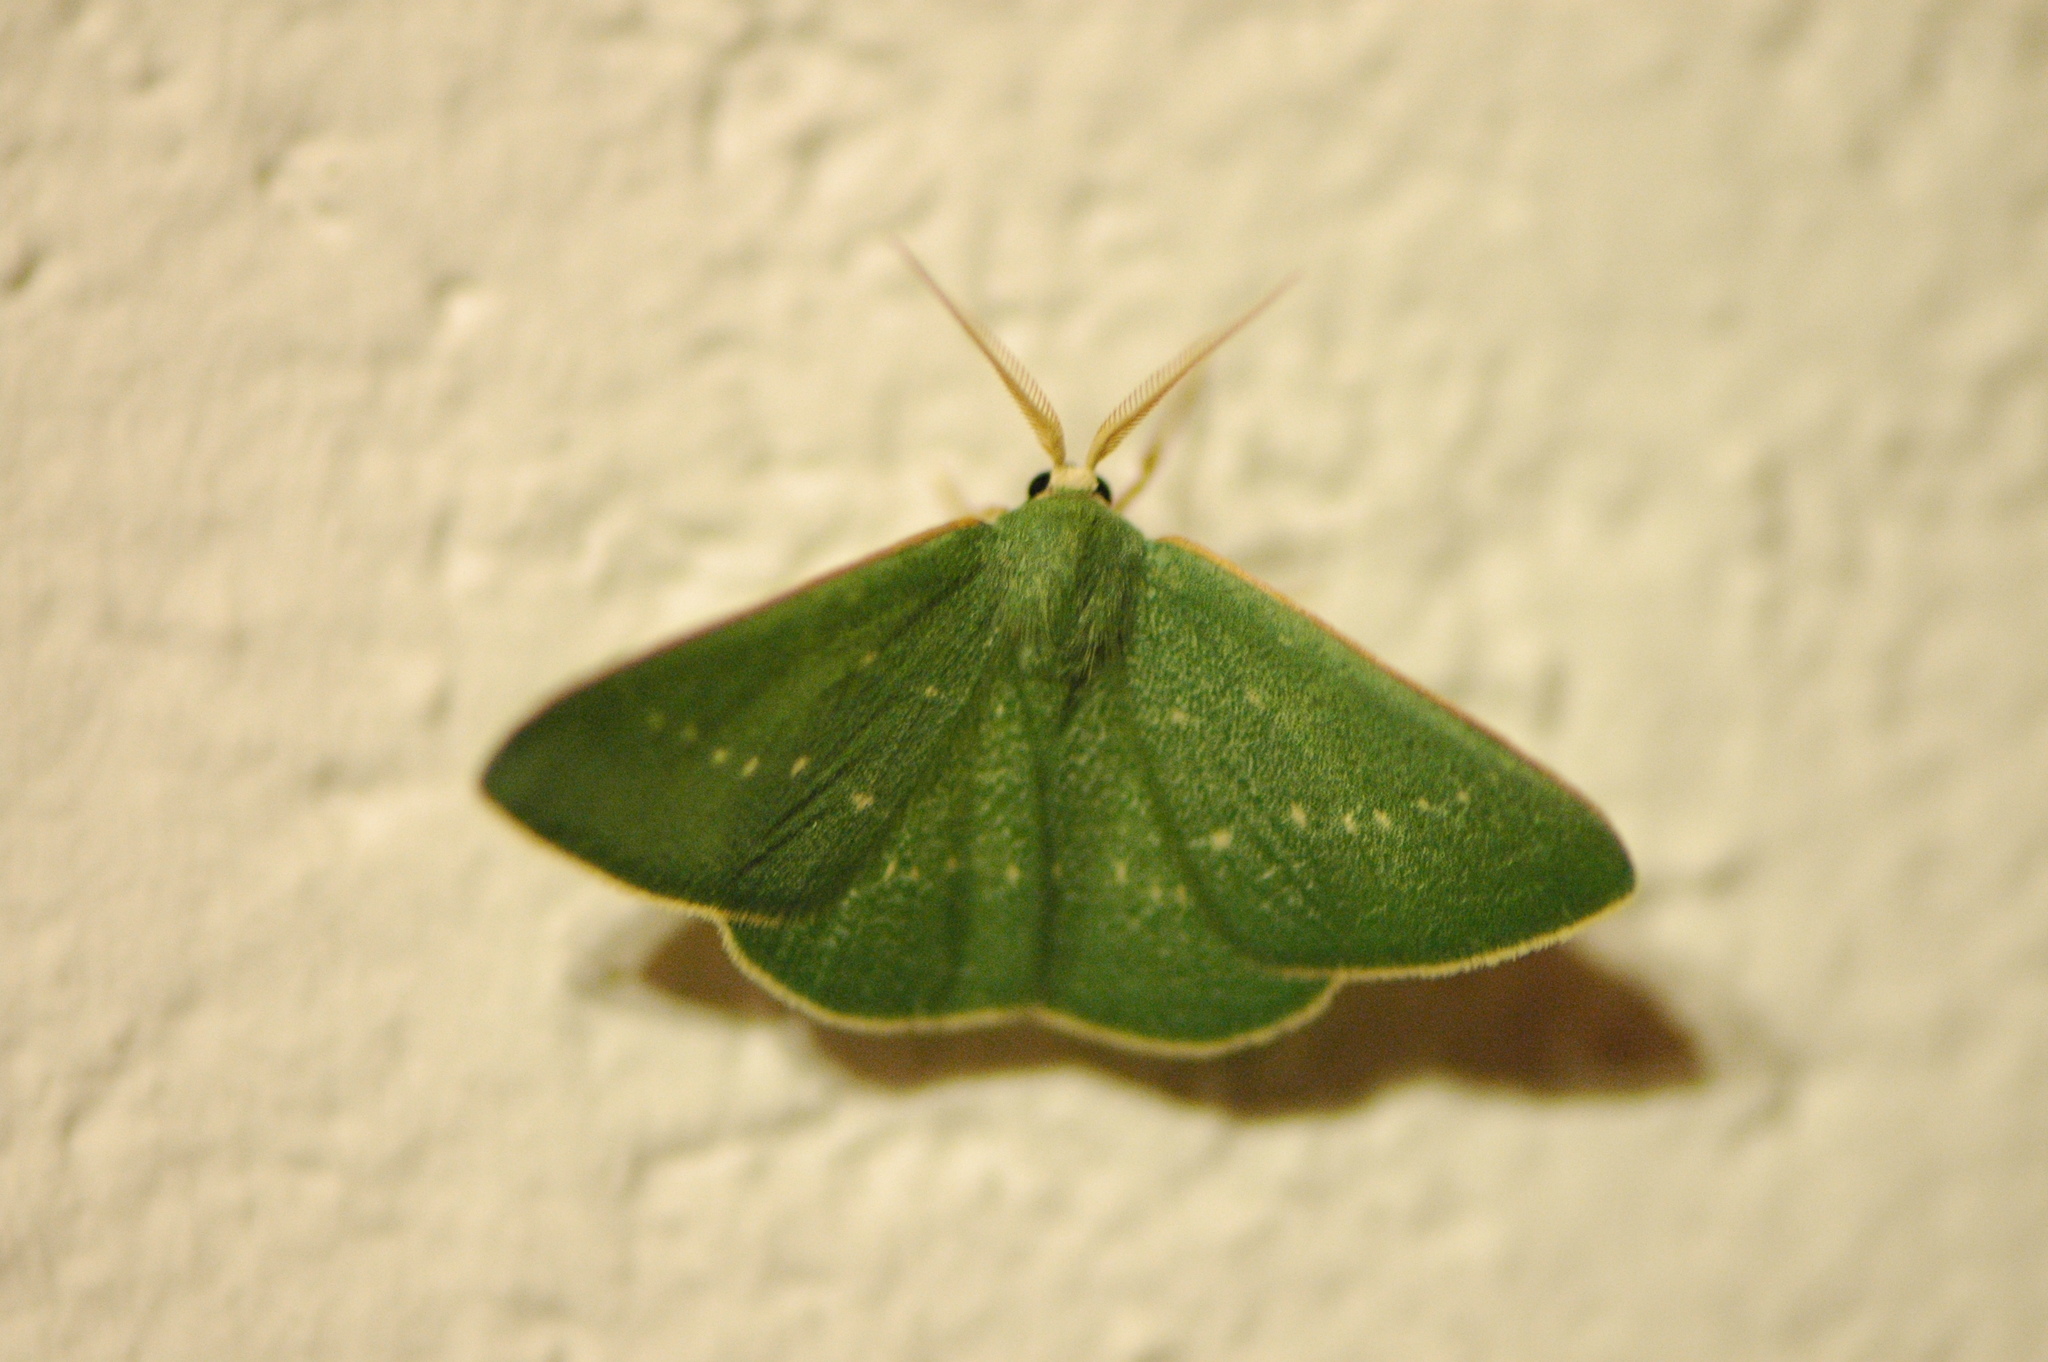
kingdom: Animalia
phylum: Arthropoda
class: Insecta
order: Lepidoptera
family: Geometridae
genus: Kuchleria
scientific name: Kuchleria insignata
